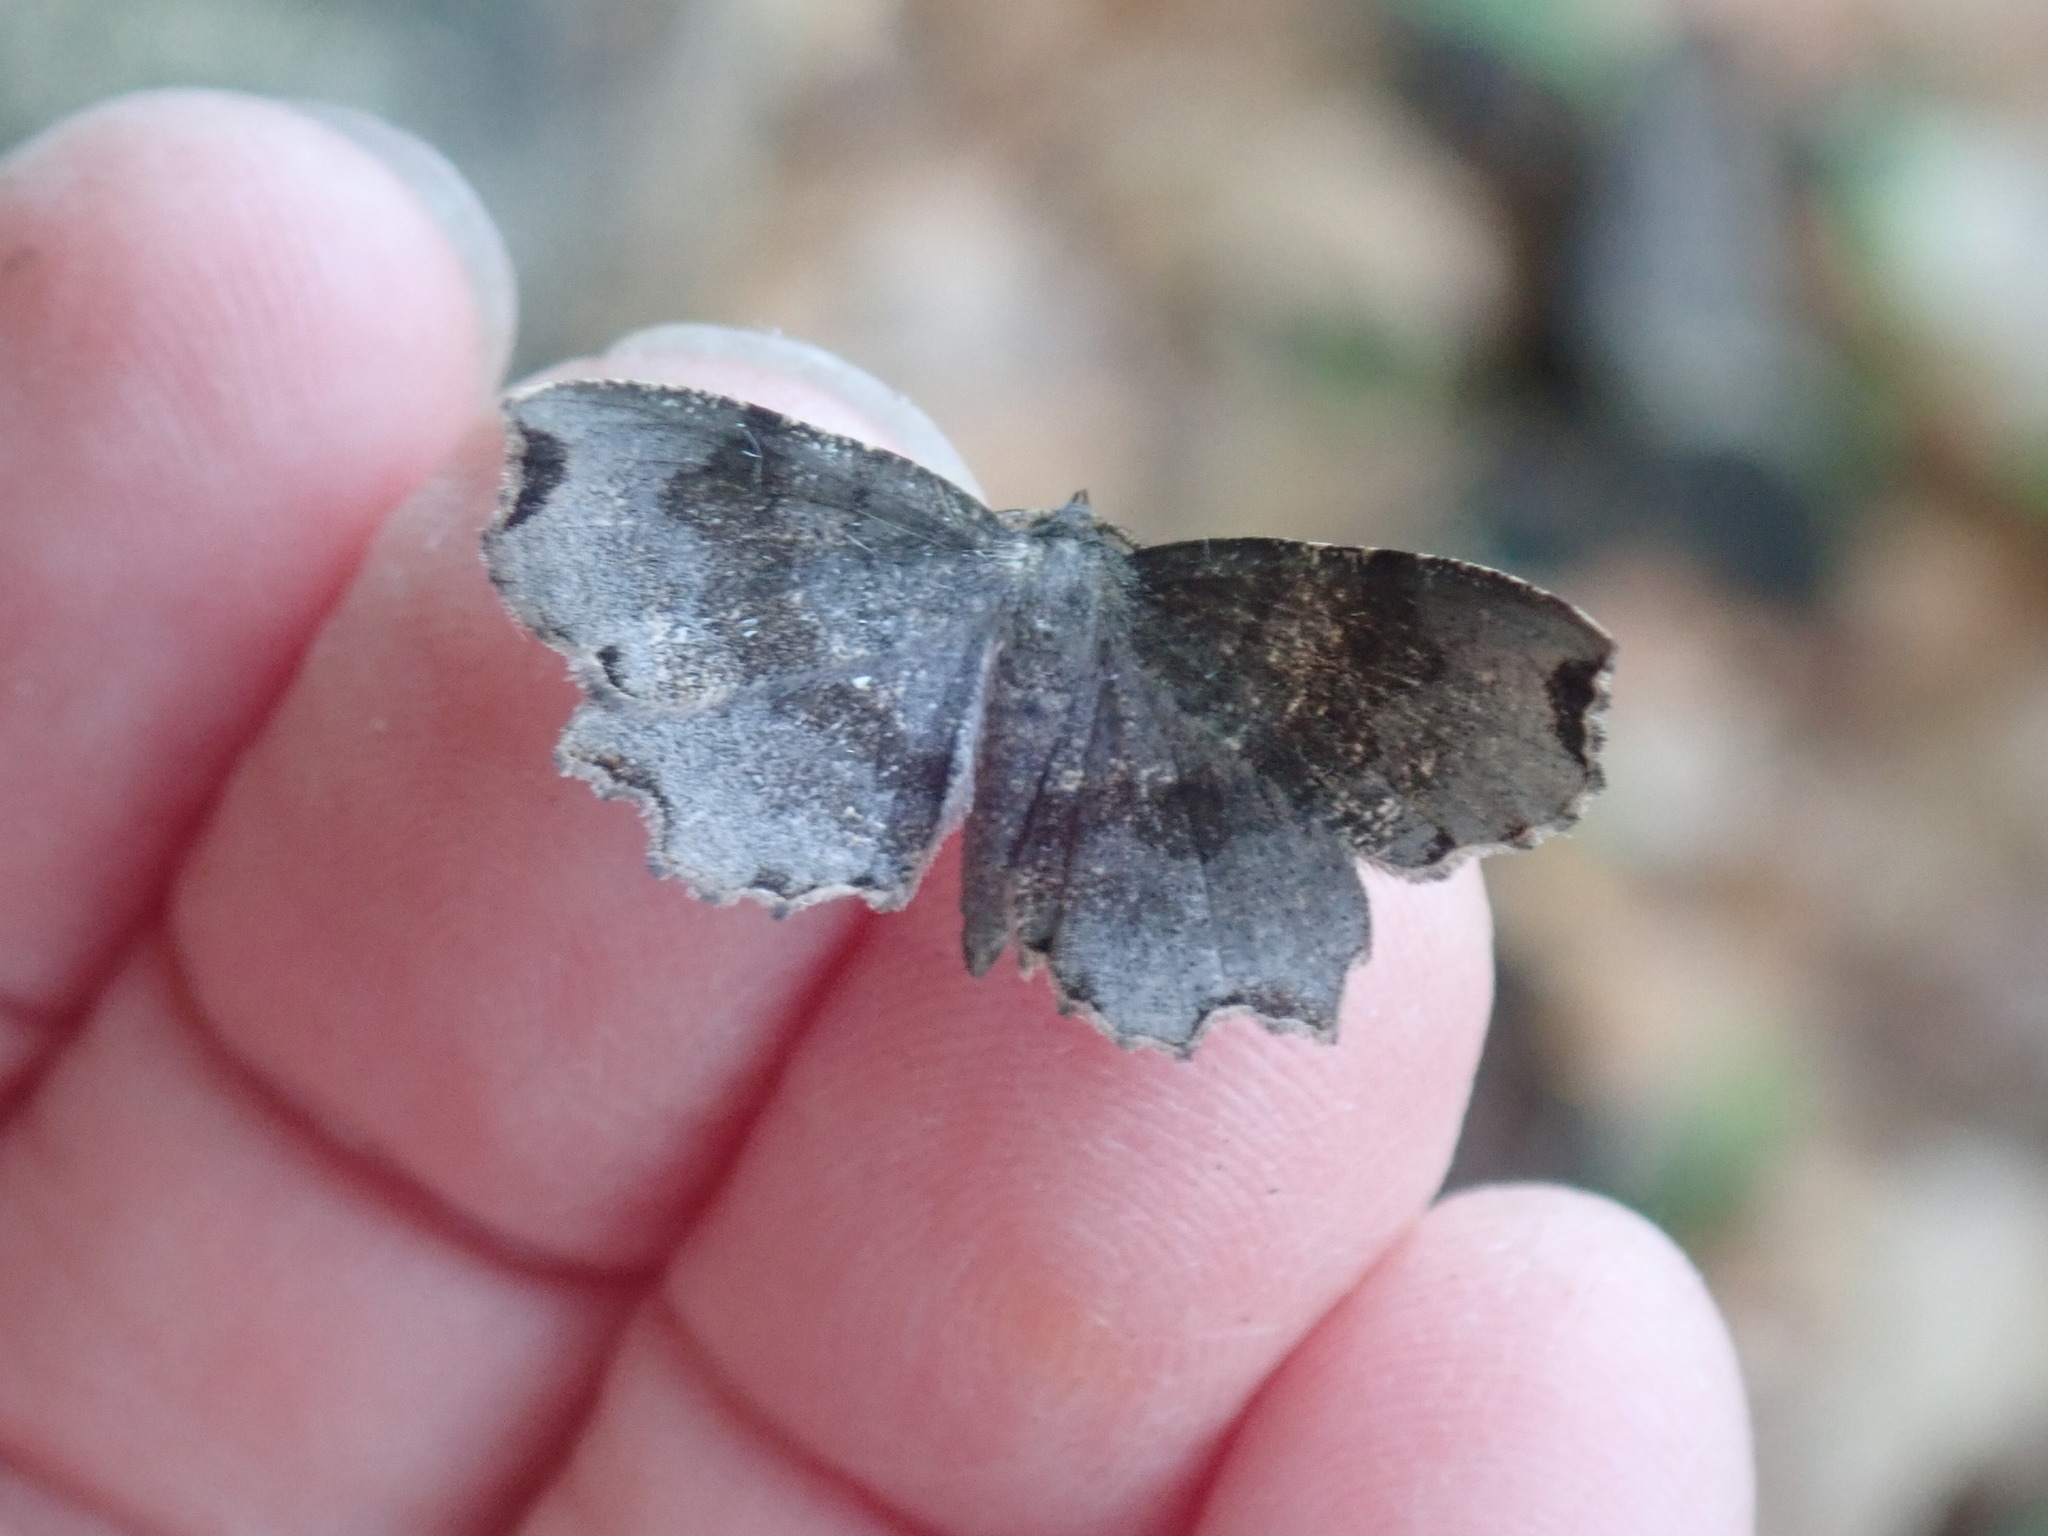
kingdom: Animalia
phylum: Arthropoda
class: Insecta
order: Lepidoptera
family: Geometridae
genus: Cepphis
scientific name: Cepphis decoloraria
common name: Dark scallop moth
